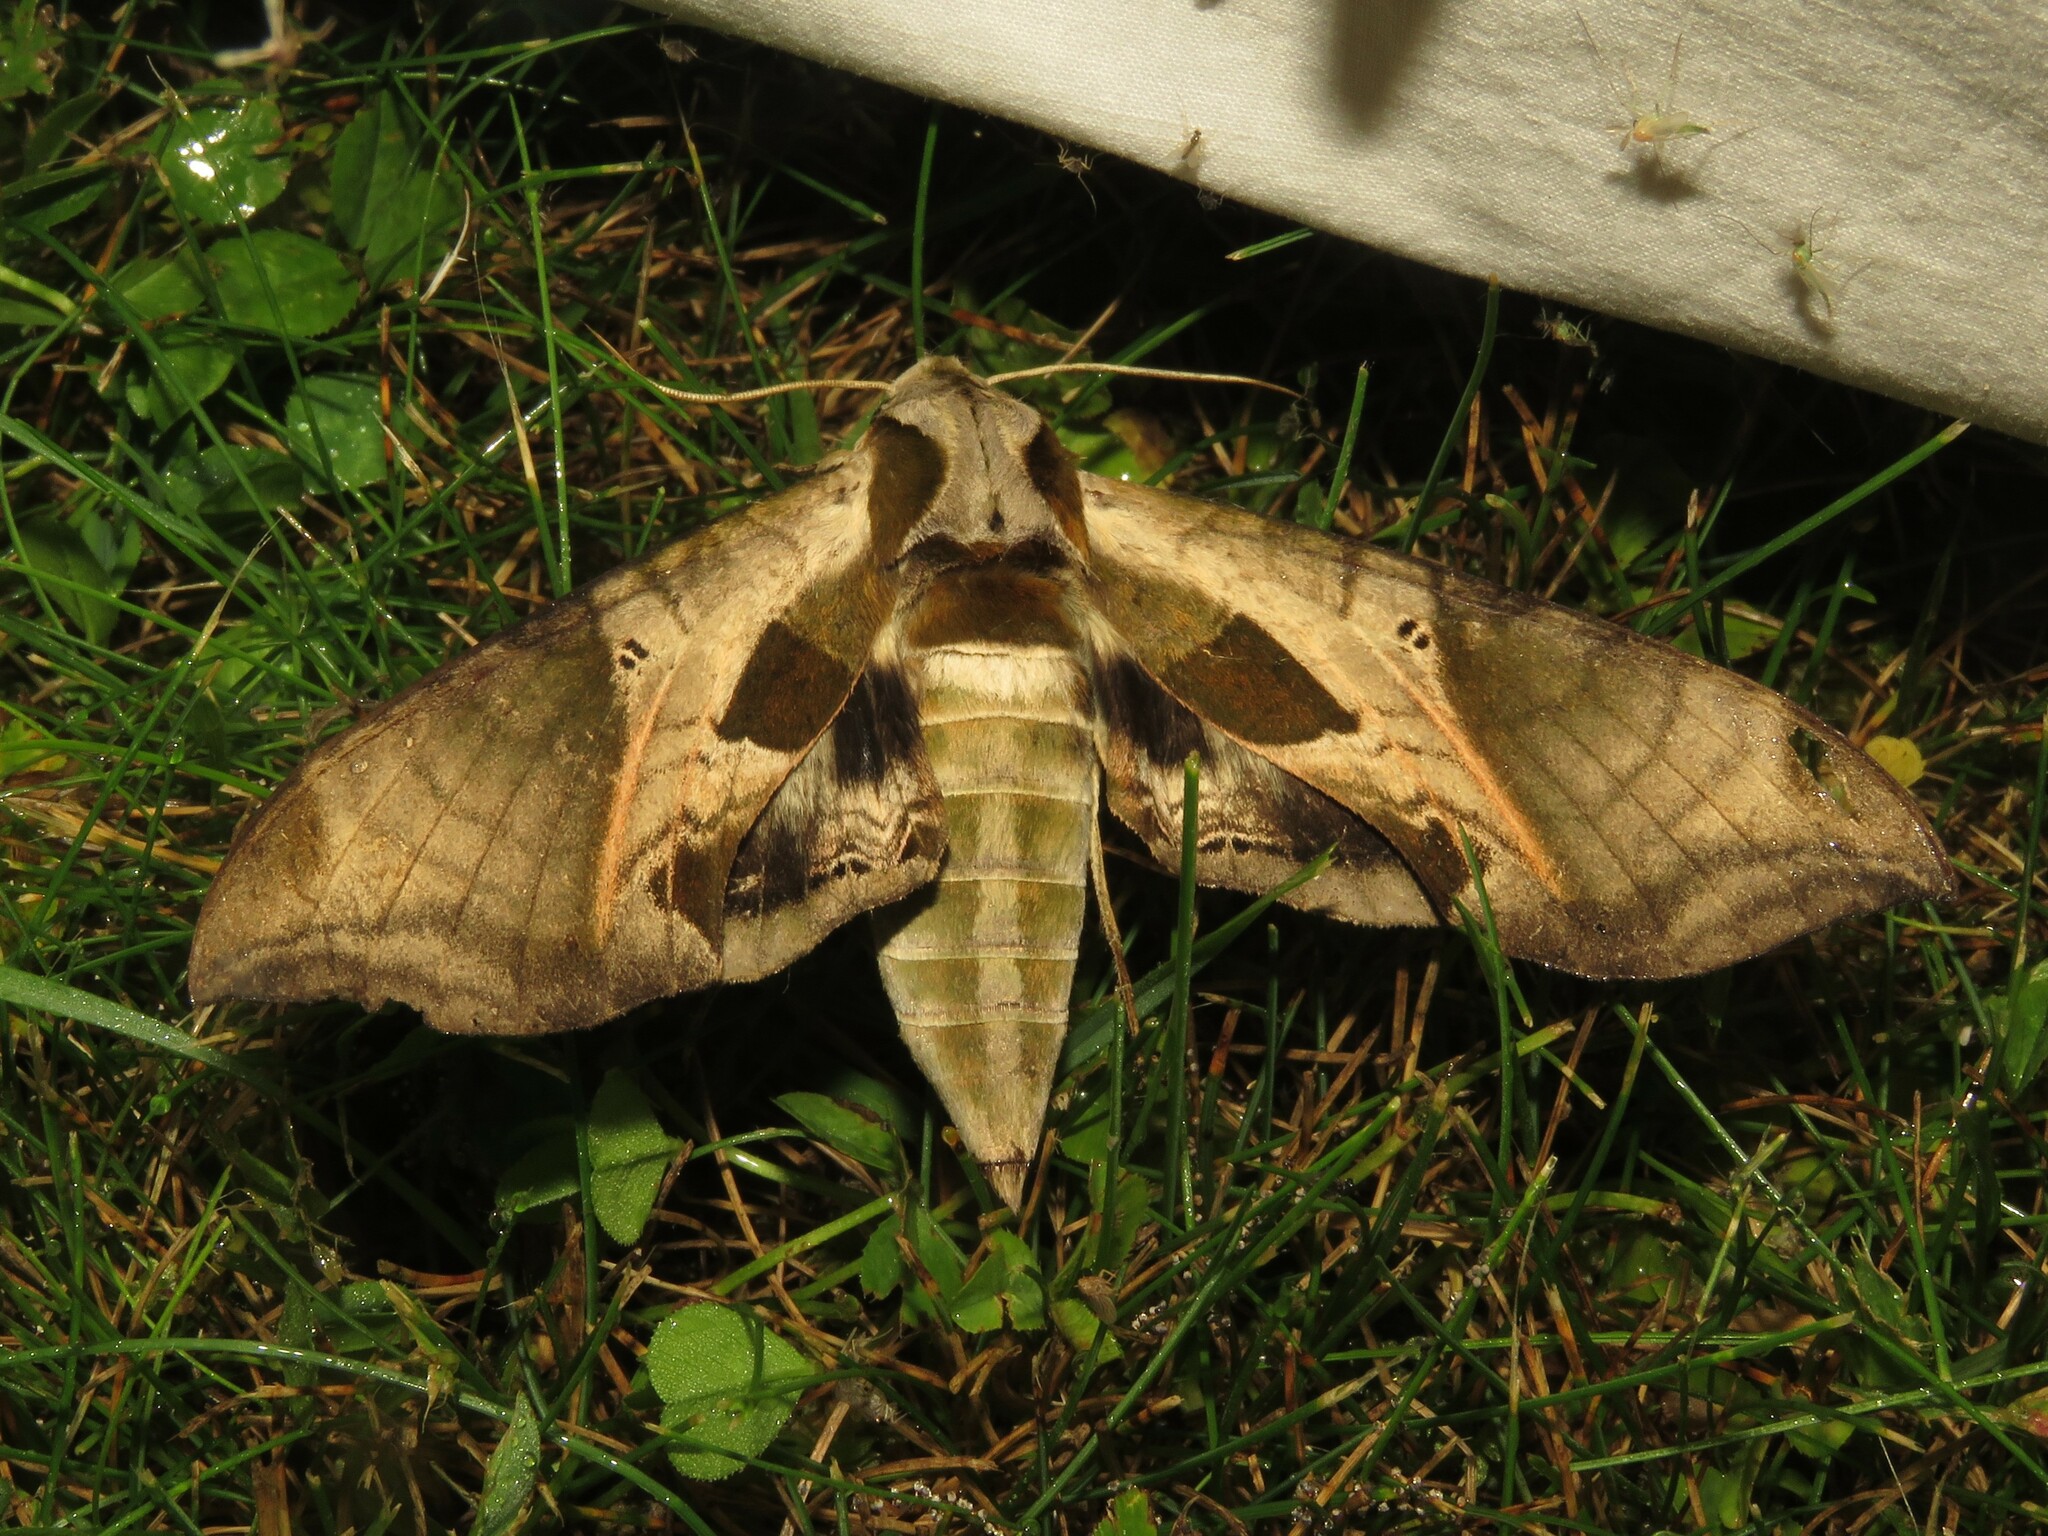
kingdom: Animalia
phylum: Arthropoda
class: Insecta
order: Lepidoptera
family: Sphingidae
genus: Eumorpha
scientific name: Eumorpha pandorus
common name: Pandora sphinx
